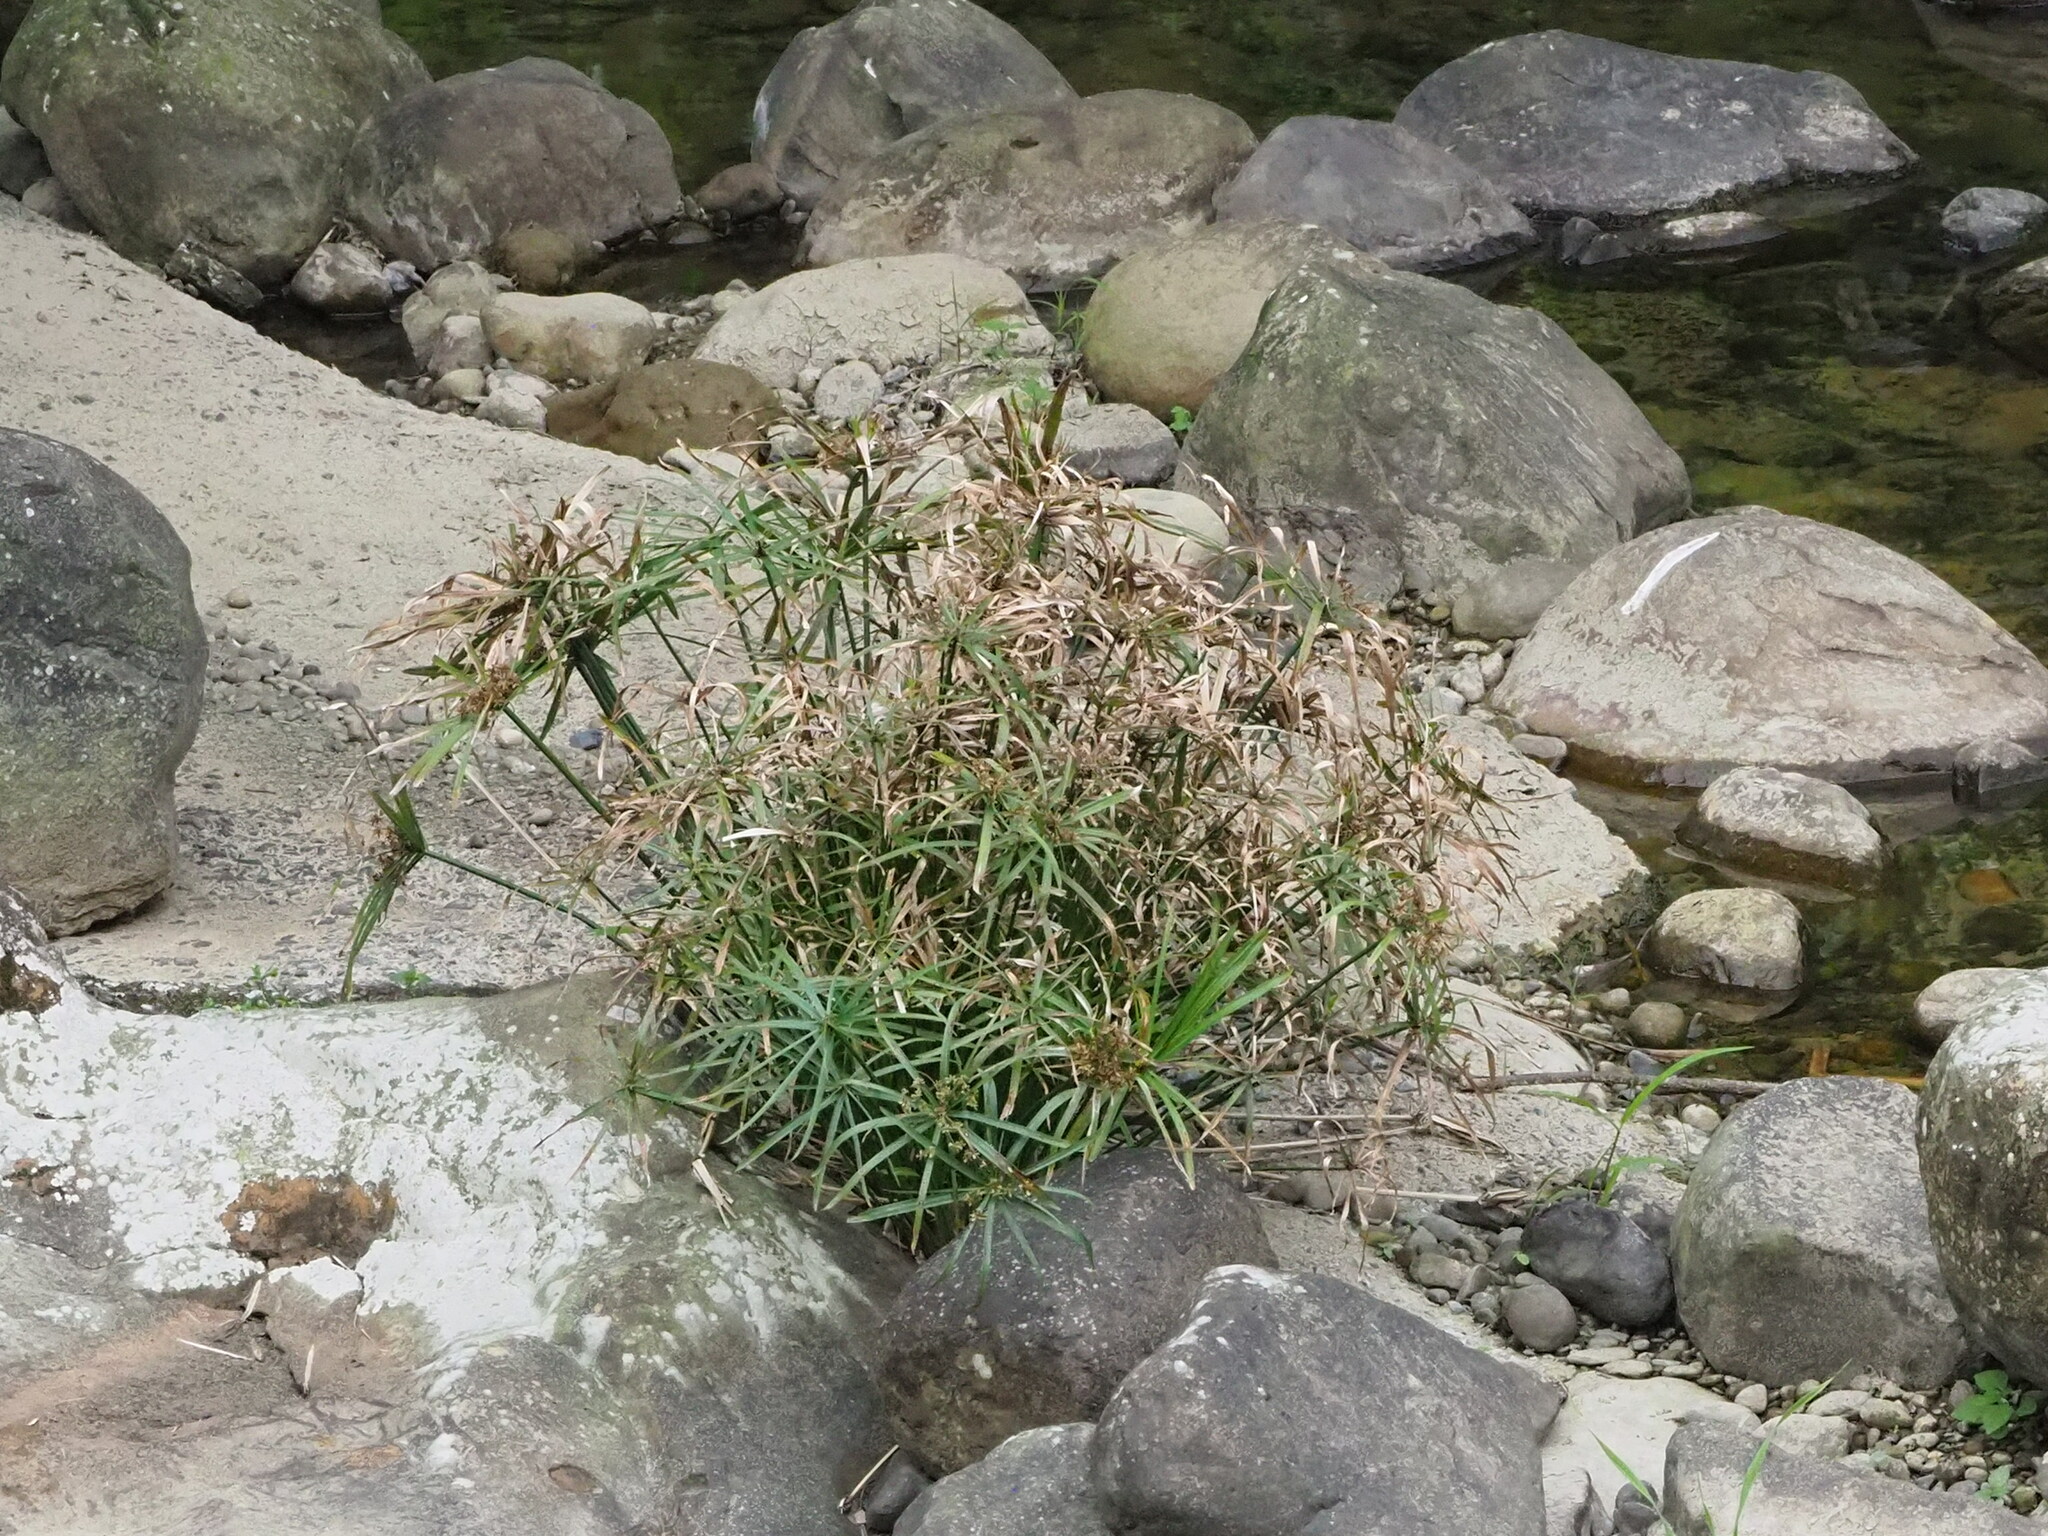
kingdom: Plantae
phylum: Tracheophyta
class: Liliopsida
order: Poales
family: Cyperaceae
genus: Cyperus
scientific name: Cyperus alternifolius
